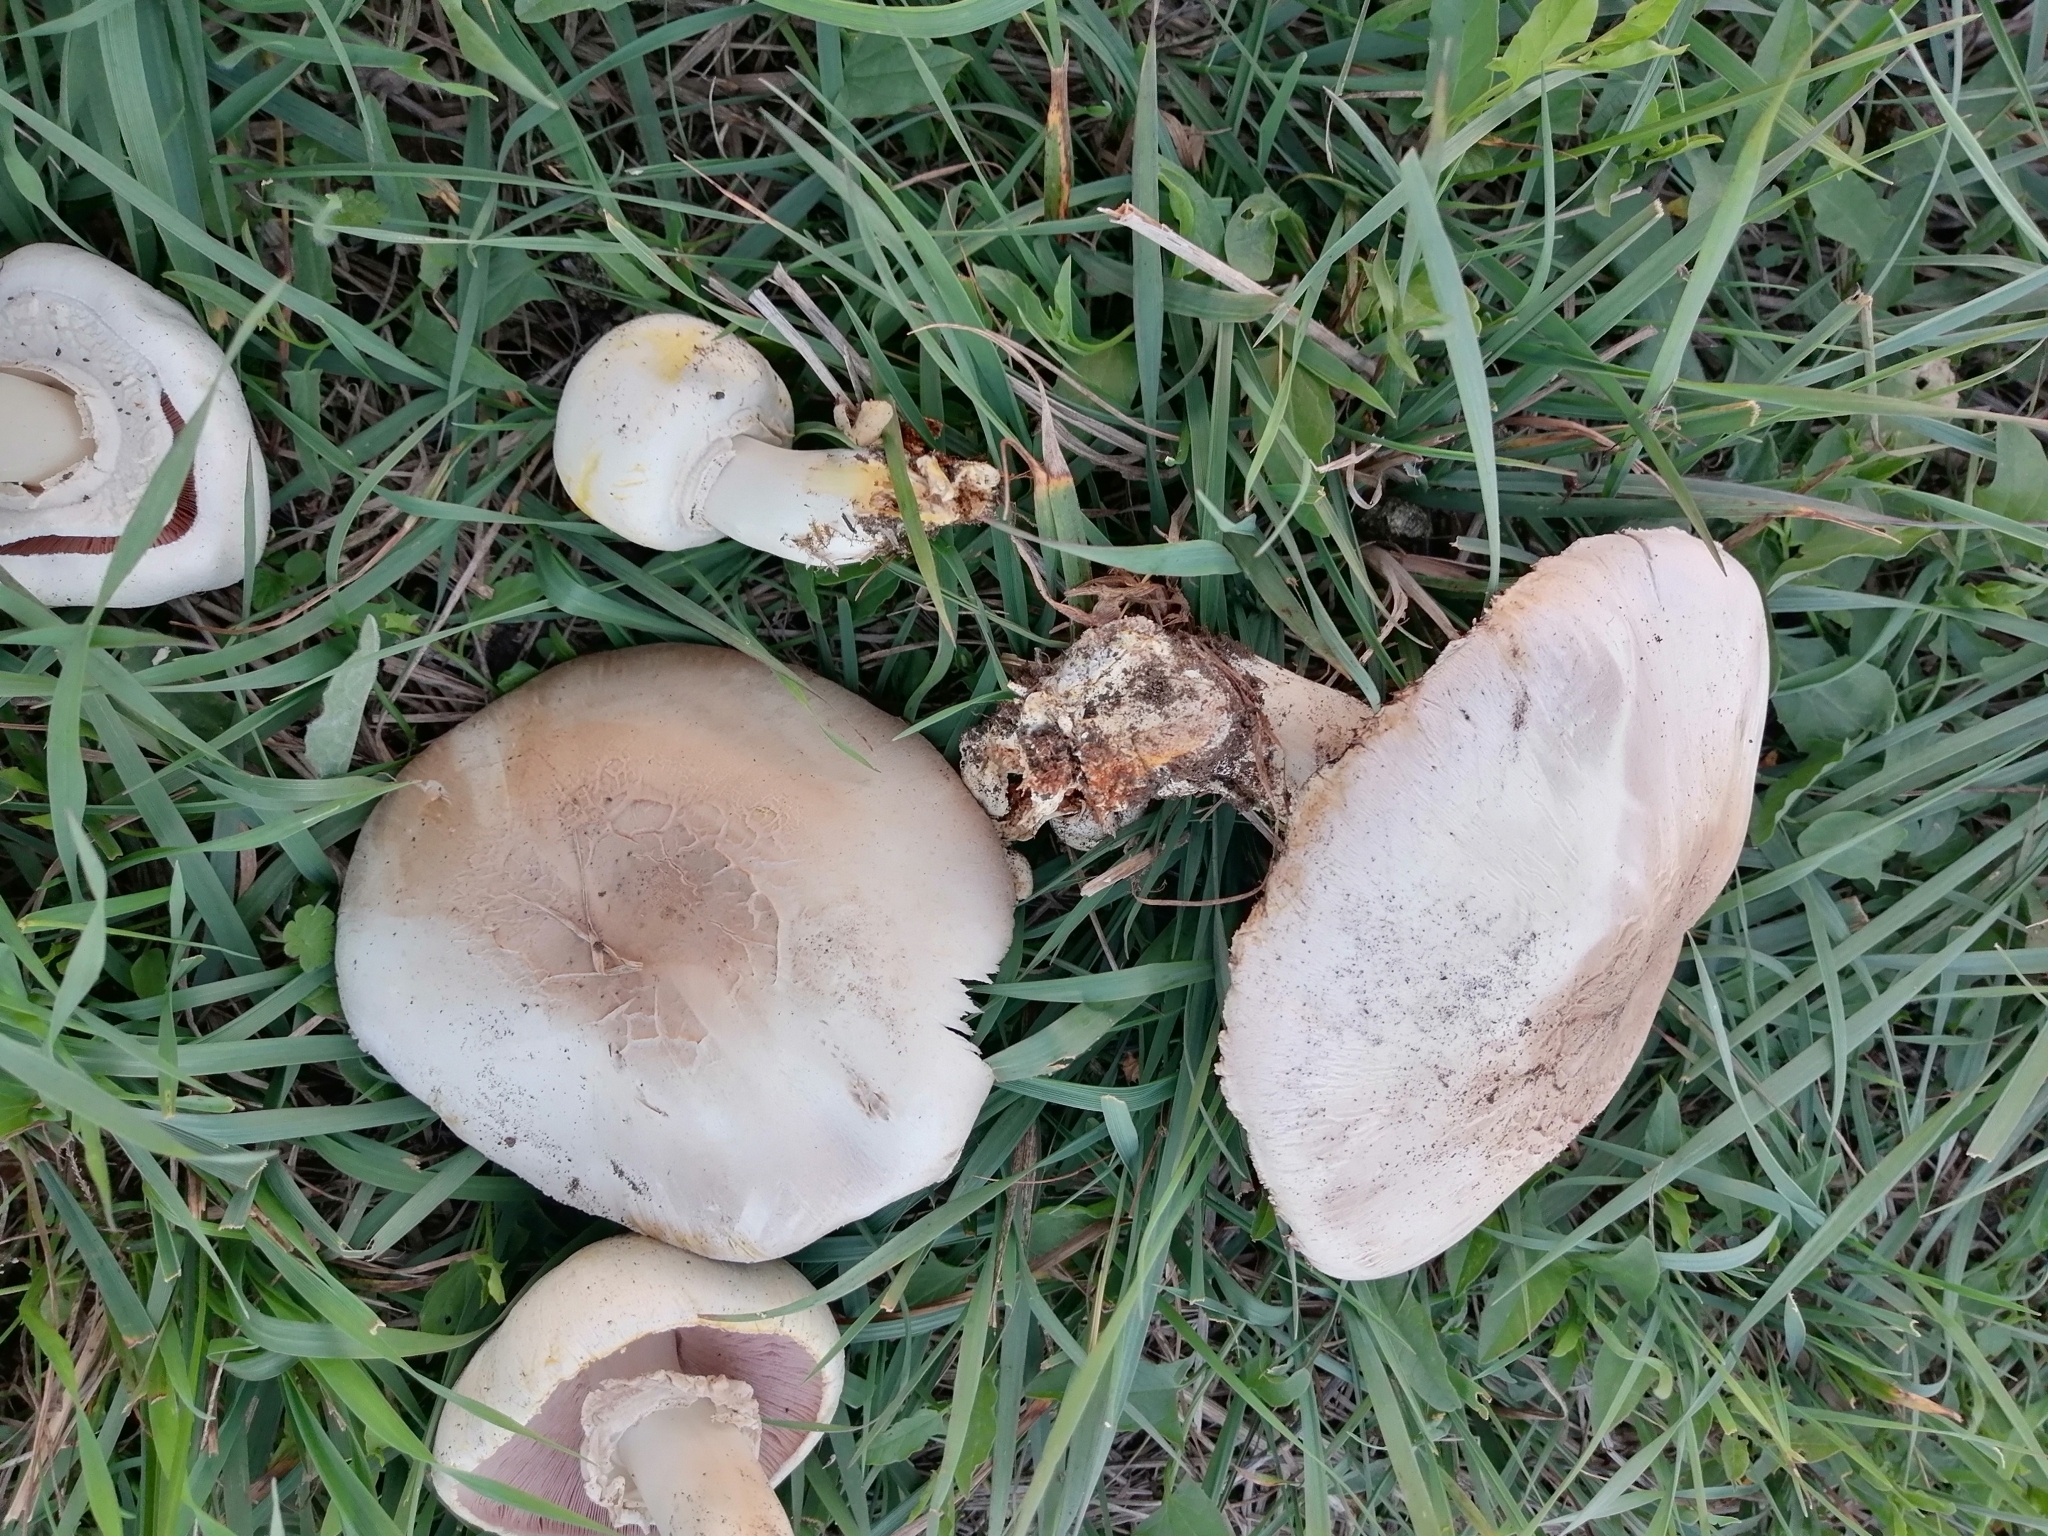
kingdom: Fungi
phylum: Basidiomycota
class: Agaricomycetes
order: Agaricales
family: Agaricaceae
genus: Agaricus
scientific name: Agaricus xanthodermus
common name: Yellow stainer
